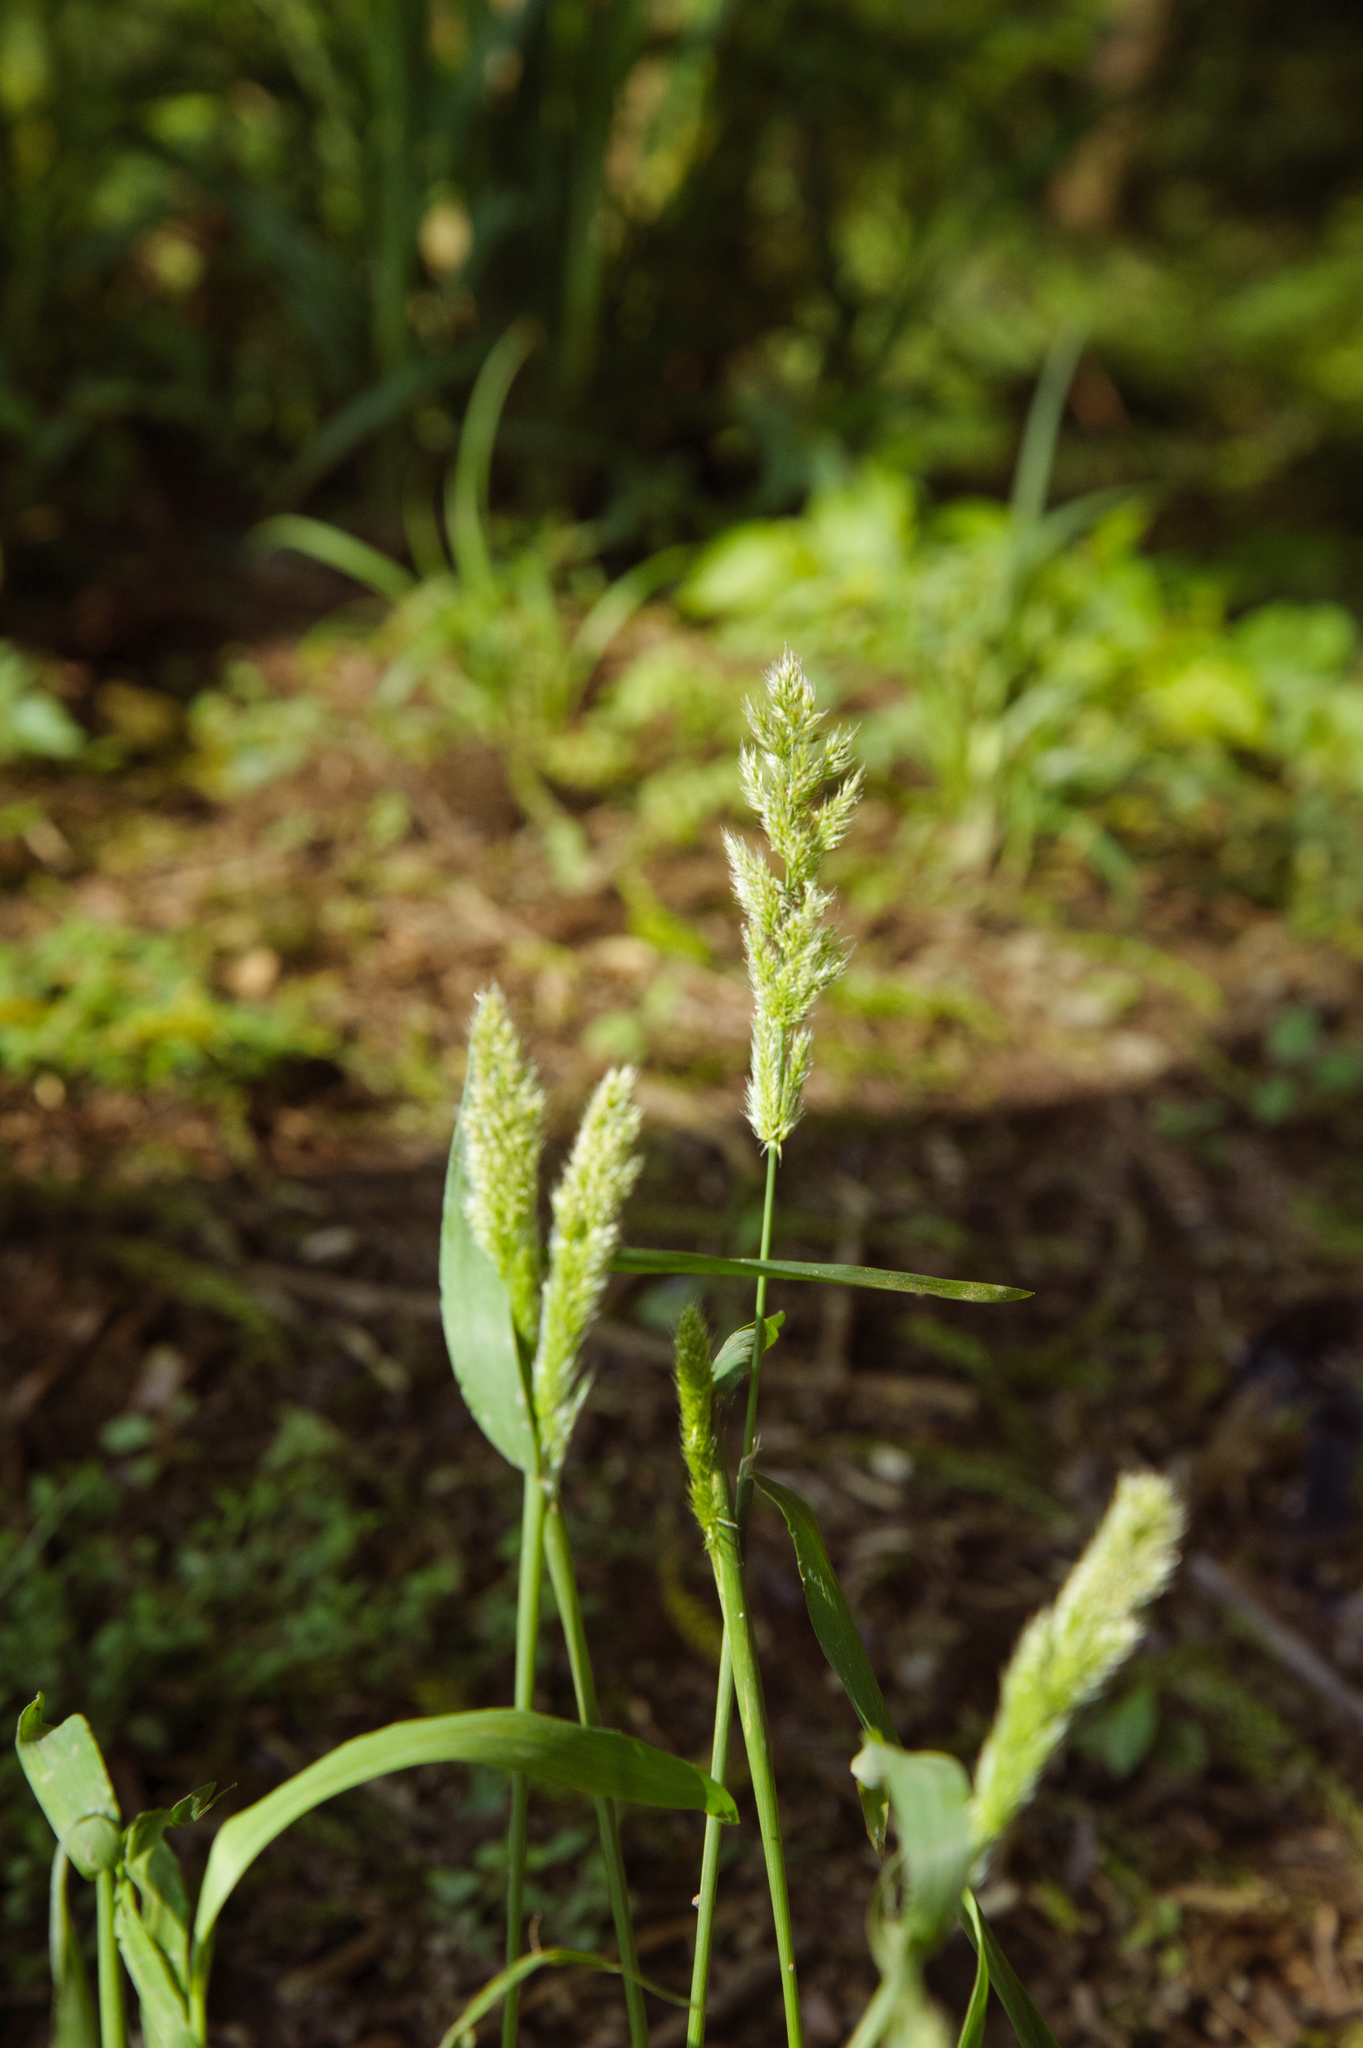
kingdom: Plantae
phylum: Tracheophyta
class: Liliopsida
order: Poales
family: Poaceae
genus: Polypogon
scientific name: Polypogon fugax
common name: Asia minor bluegrass
